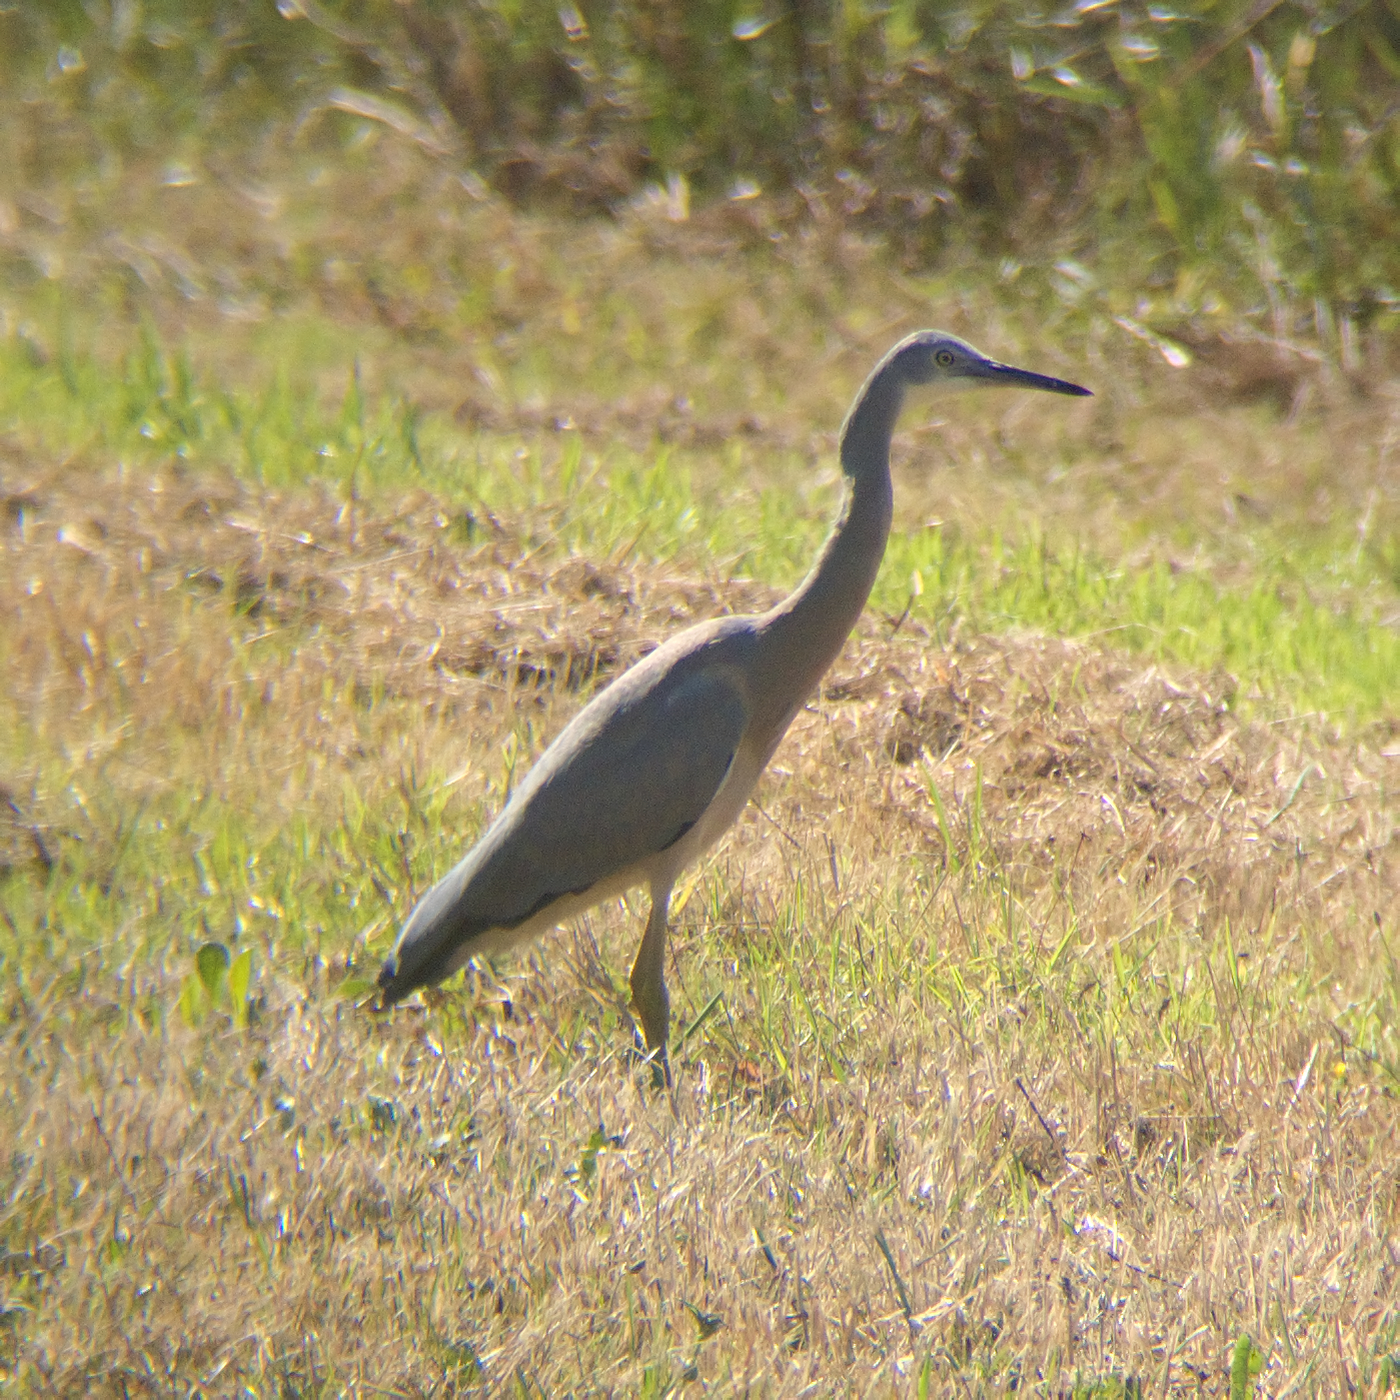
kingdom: Animalia
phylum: Chordata
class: Aves
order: Pelecaniformes
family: Ardeidae
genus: Egretta
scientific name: Egretta novaehollandiae
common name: White-faced heron
